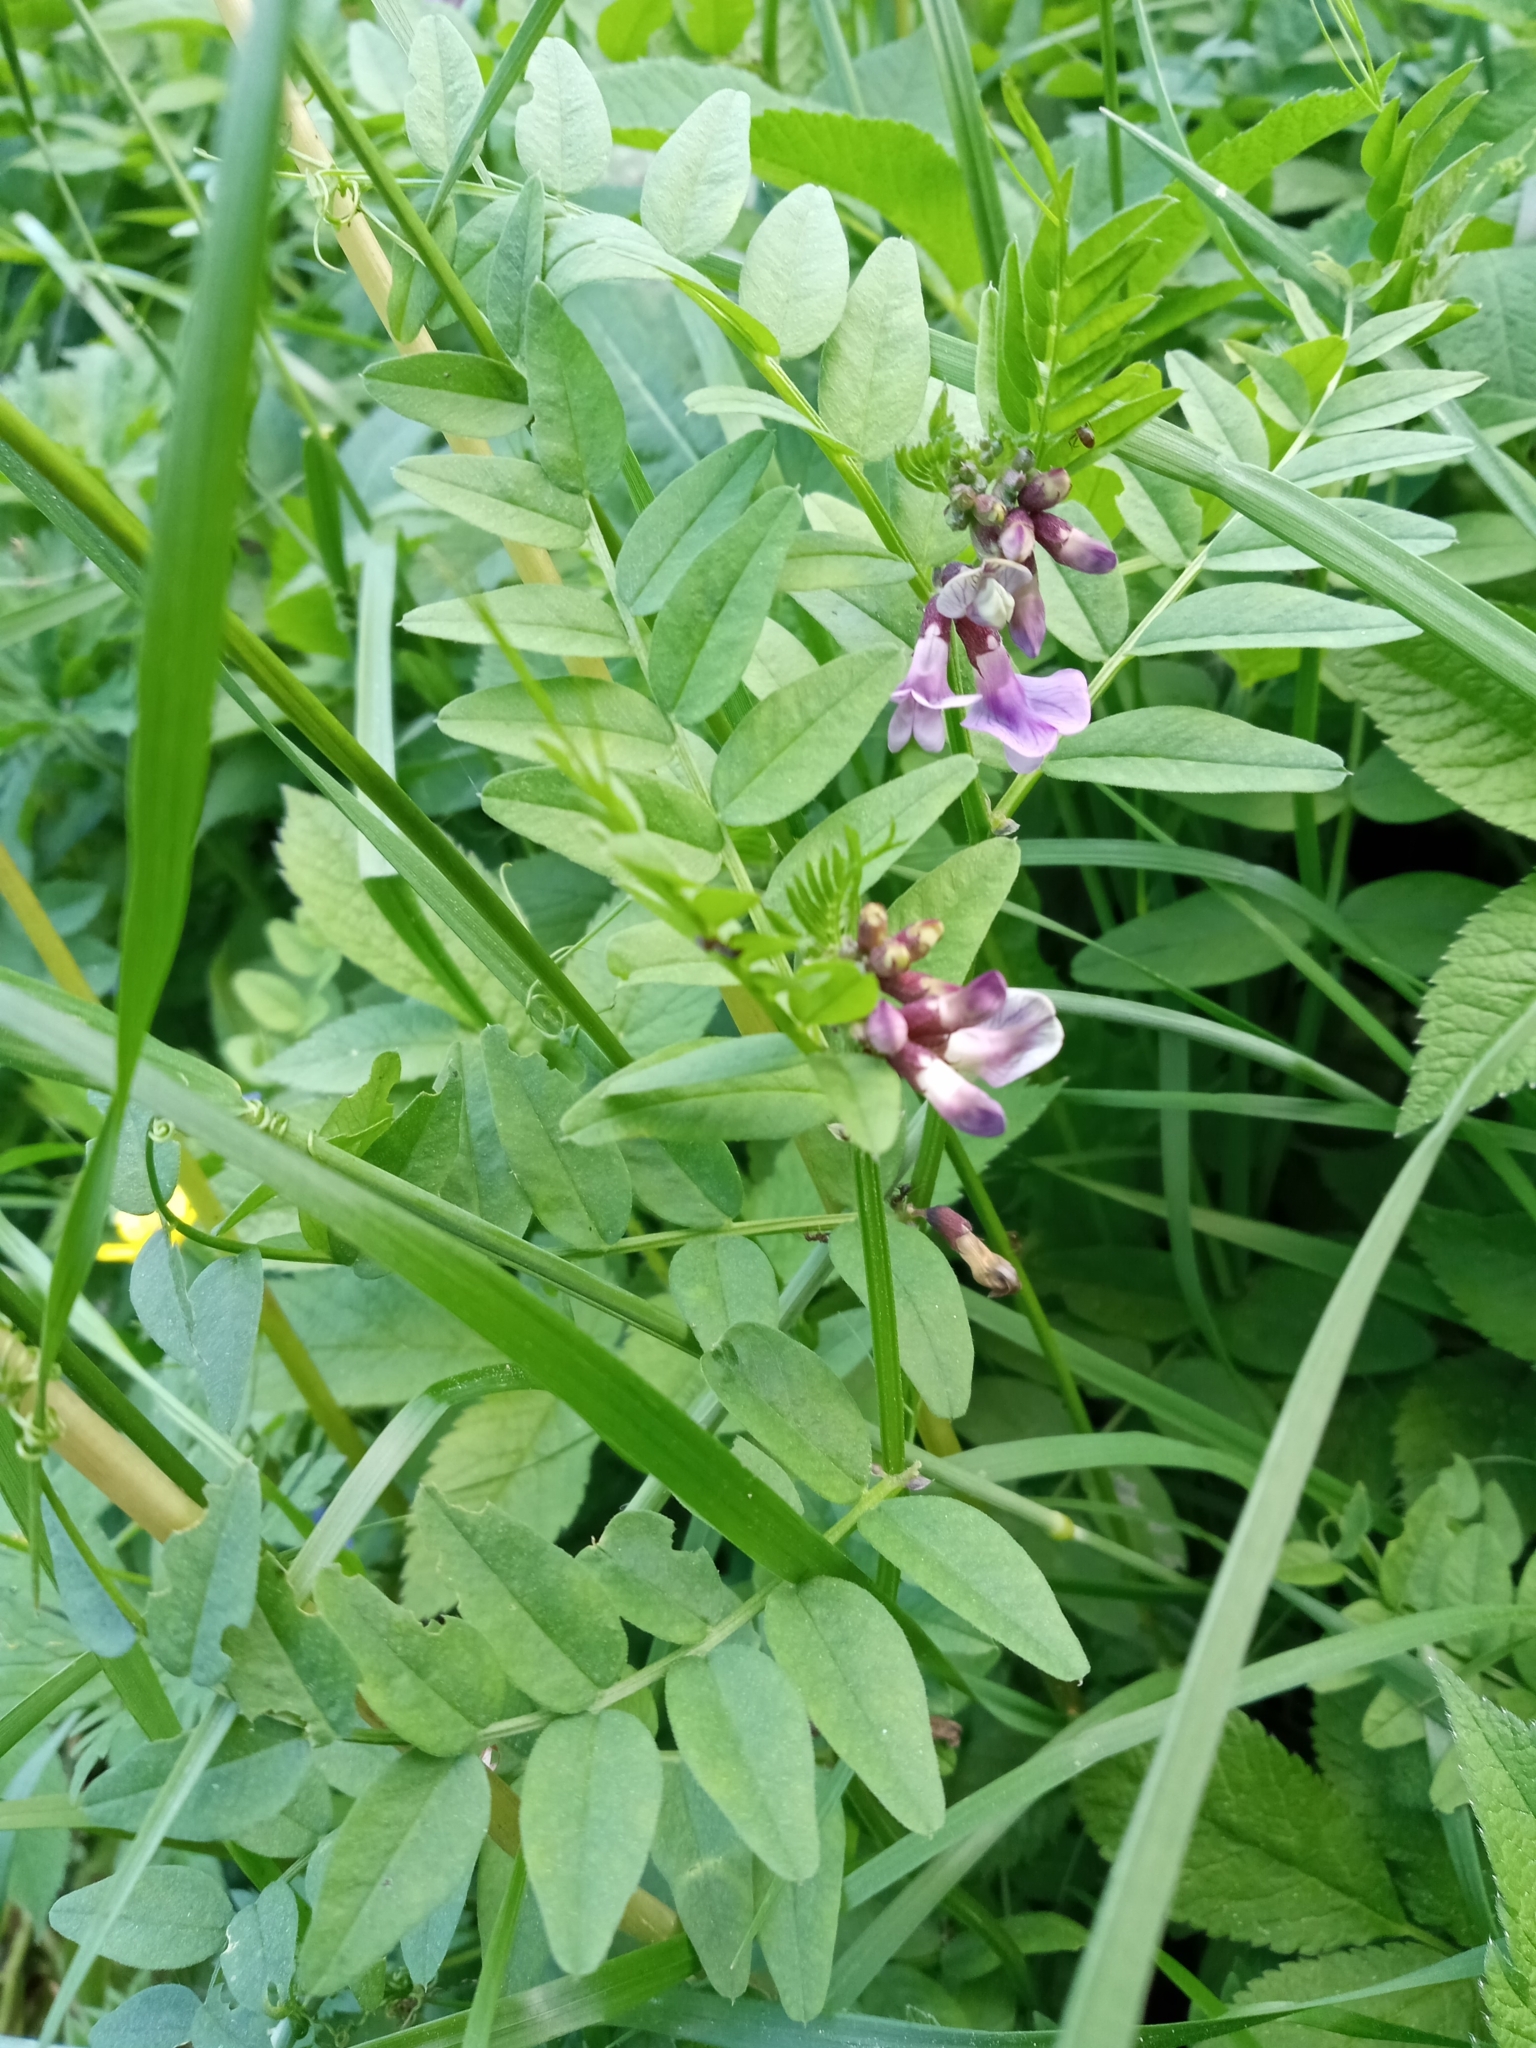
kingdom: Plantae
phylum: Tracheophyta
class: Magnoliopsida
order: Fabales
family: Fabaceae
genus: Vicia
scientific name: Vicia sepium
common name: Bush vetch
